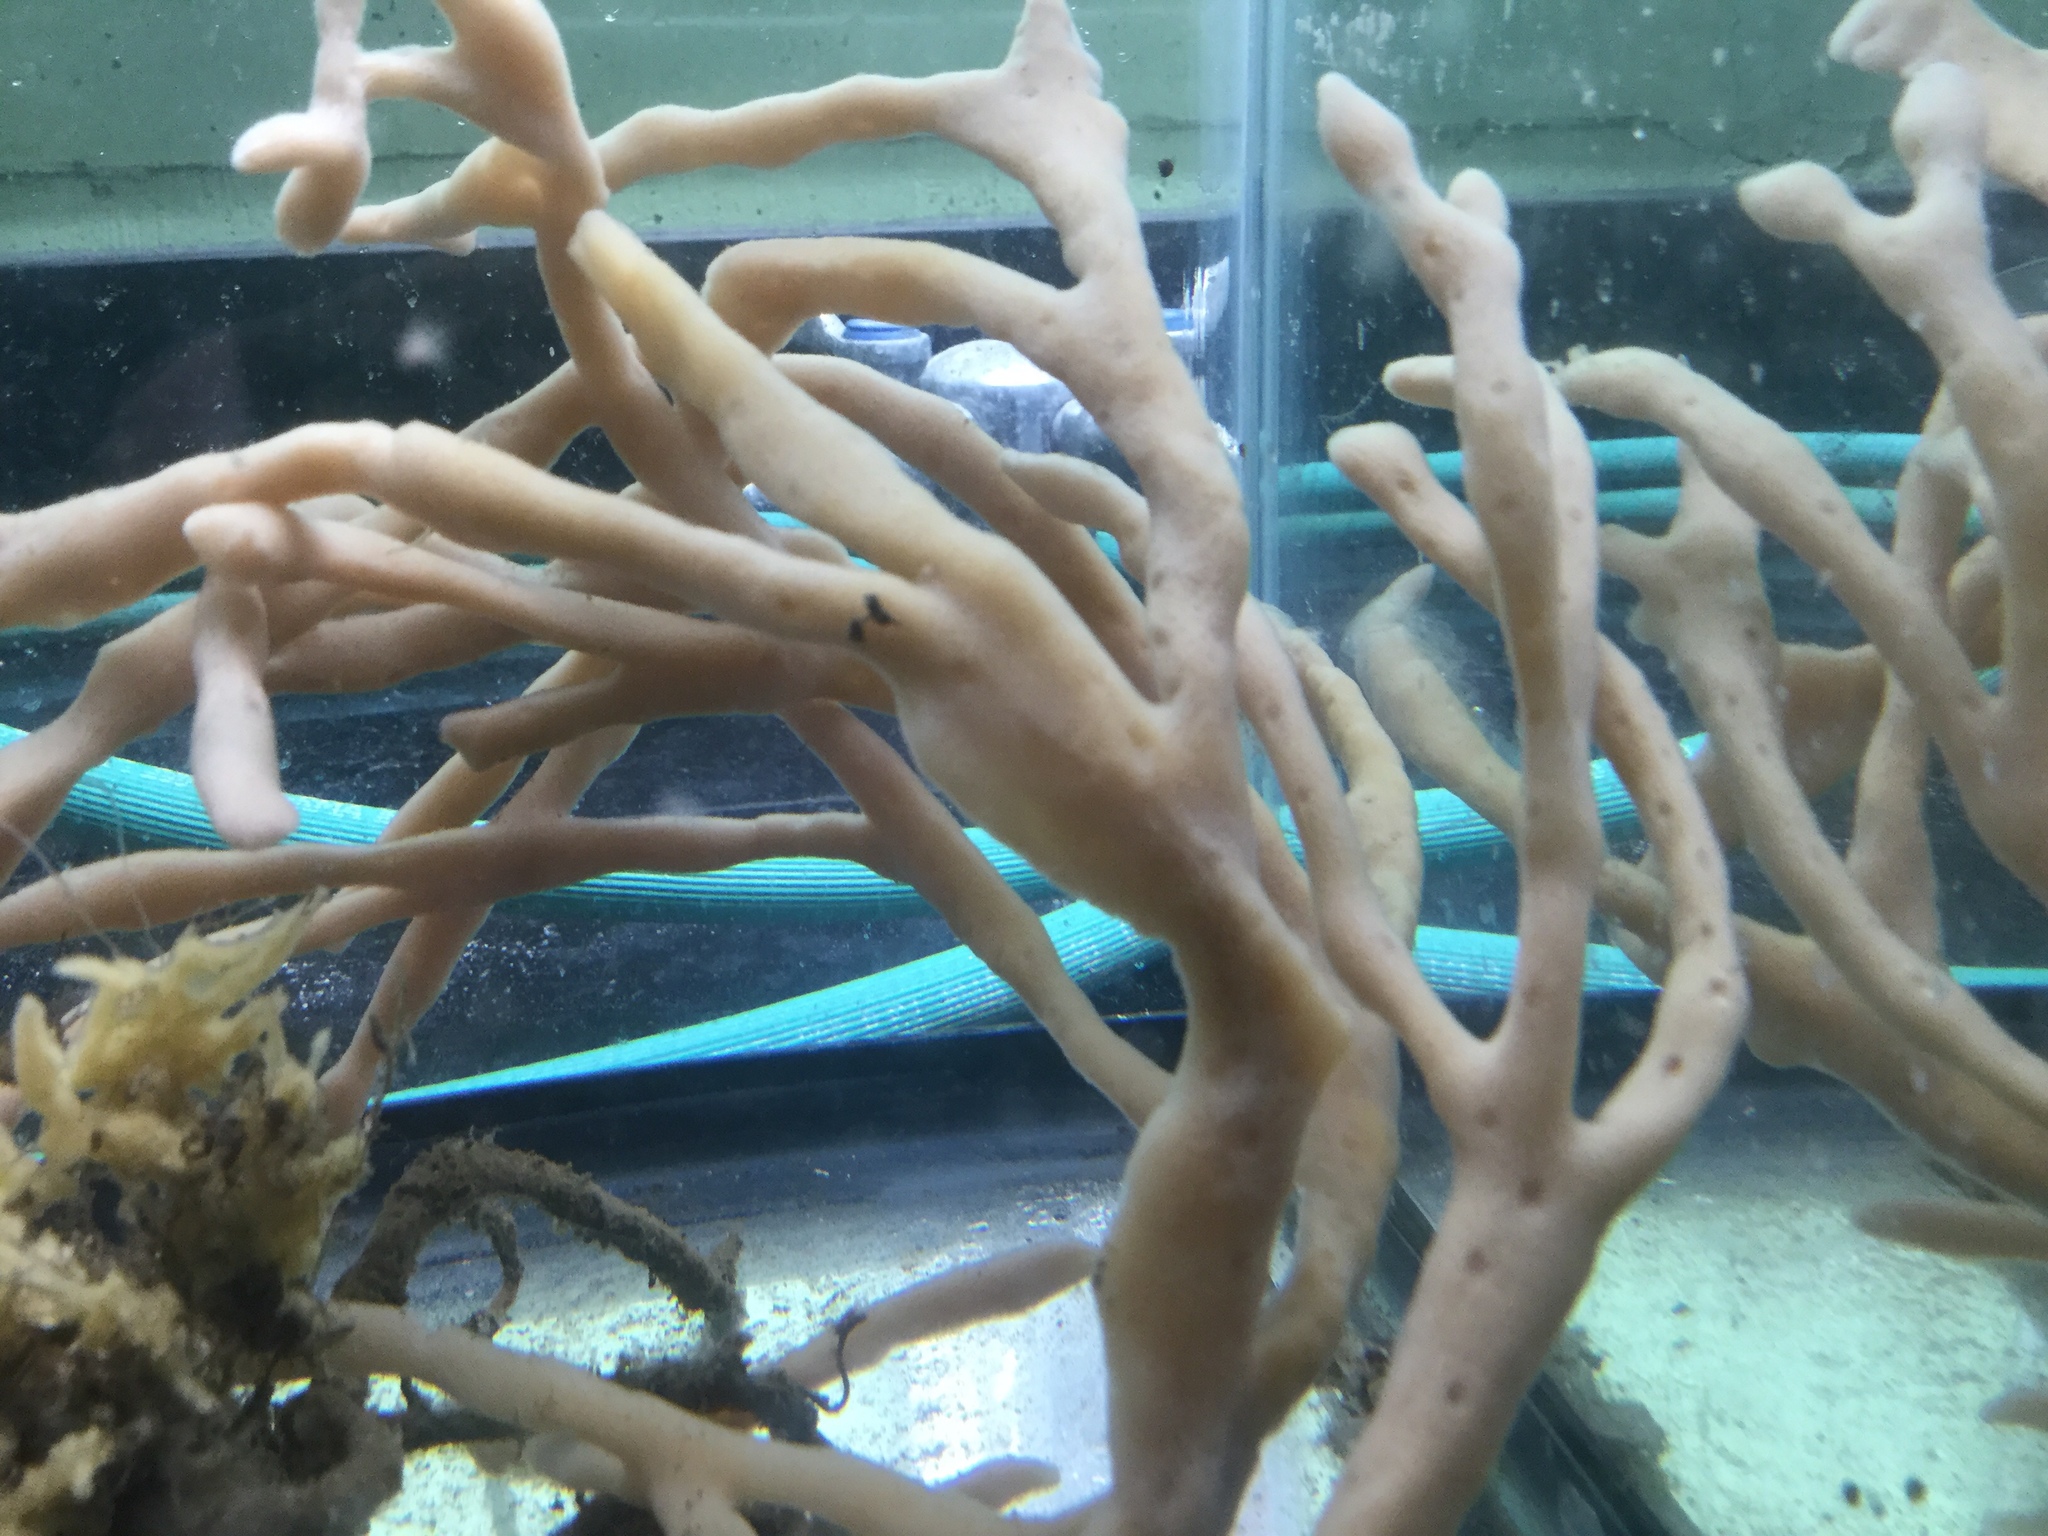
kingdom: Animalia
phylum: Porifera
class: Demospongiae
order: Suberitida
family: Halichondriidae
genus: Halichondria
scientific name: Halichondria bowerbanki
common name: Bowerbank's halichondria
